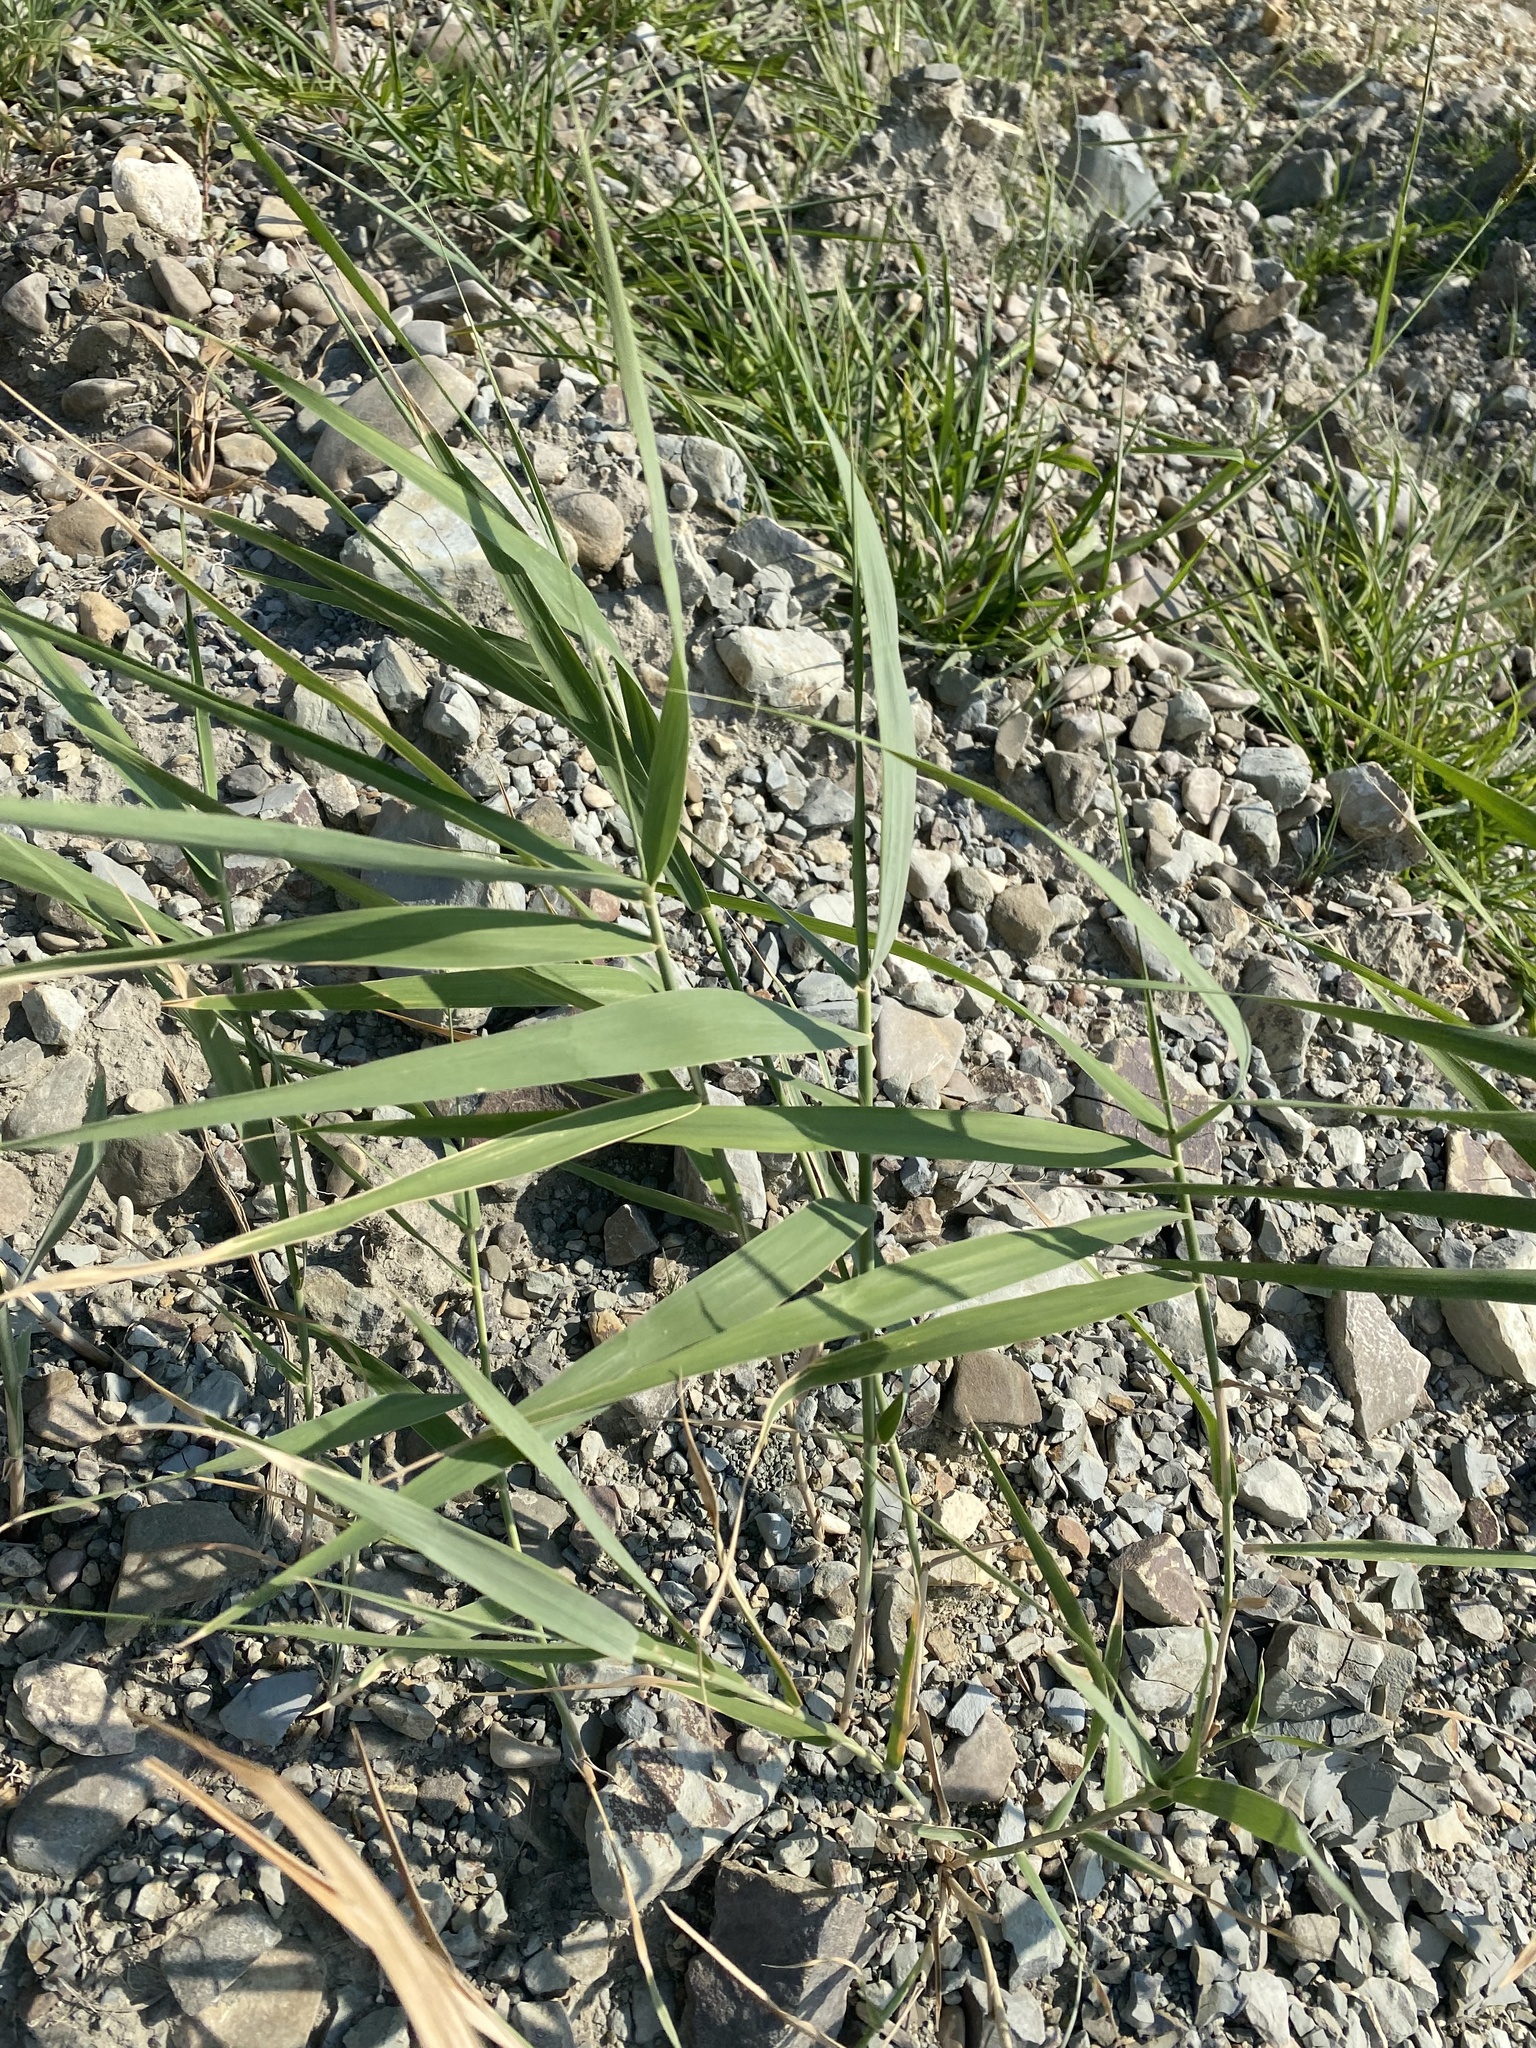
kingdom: Plantae
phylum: Tracheophyta
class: Liliopsida
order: Poales
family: Poaceae
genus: Phragmites
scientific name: Phragmites australis
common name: Common reed
